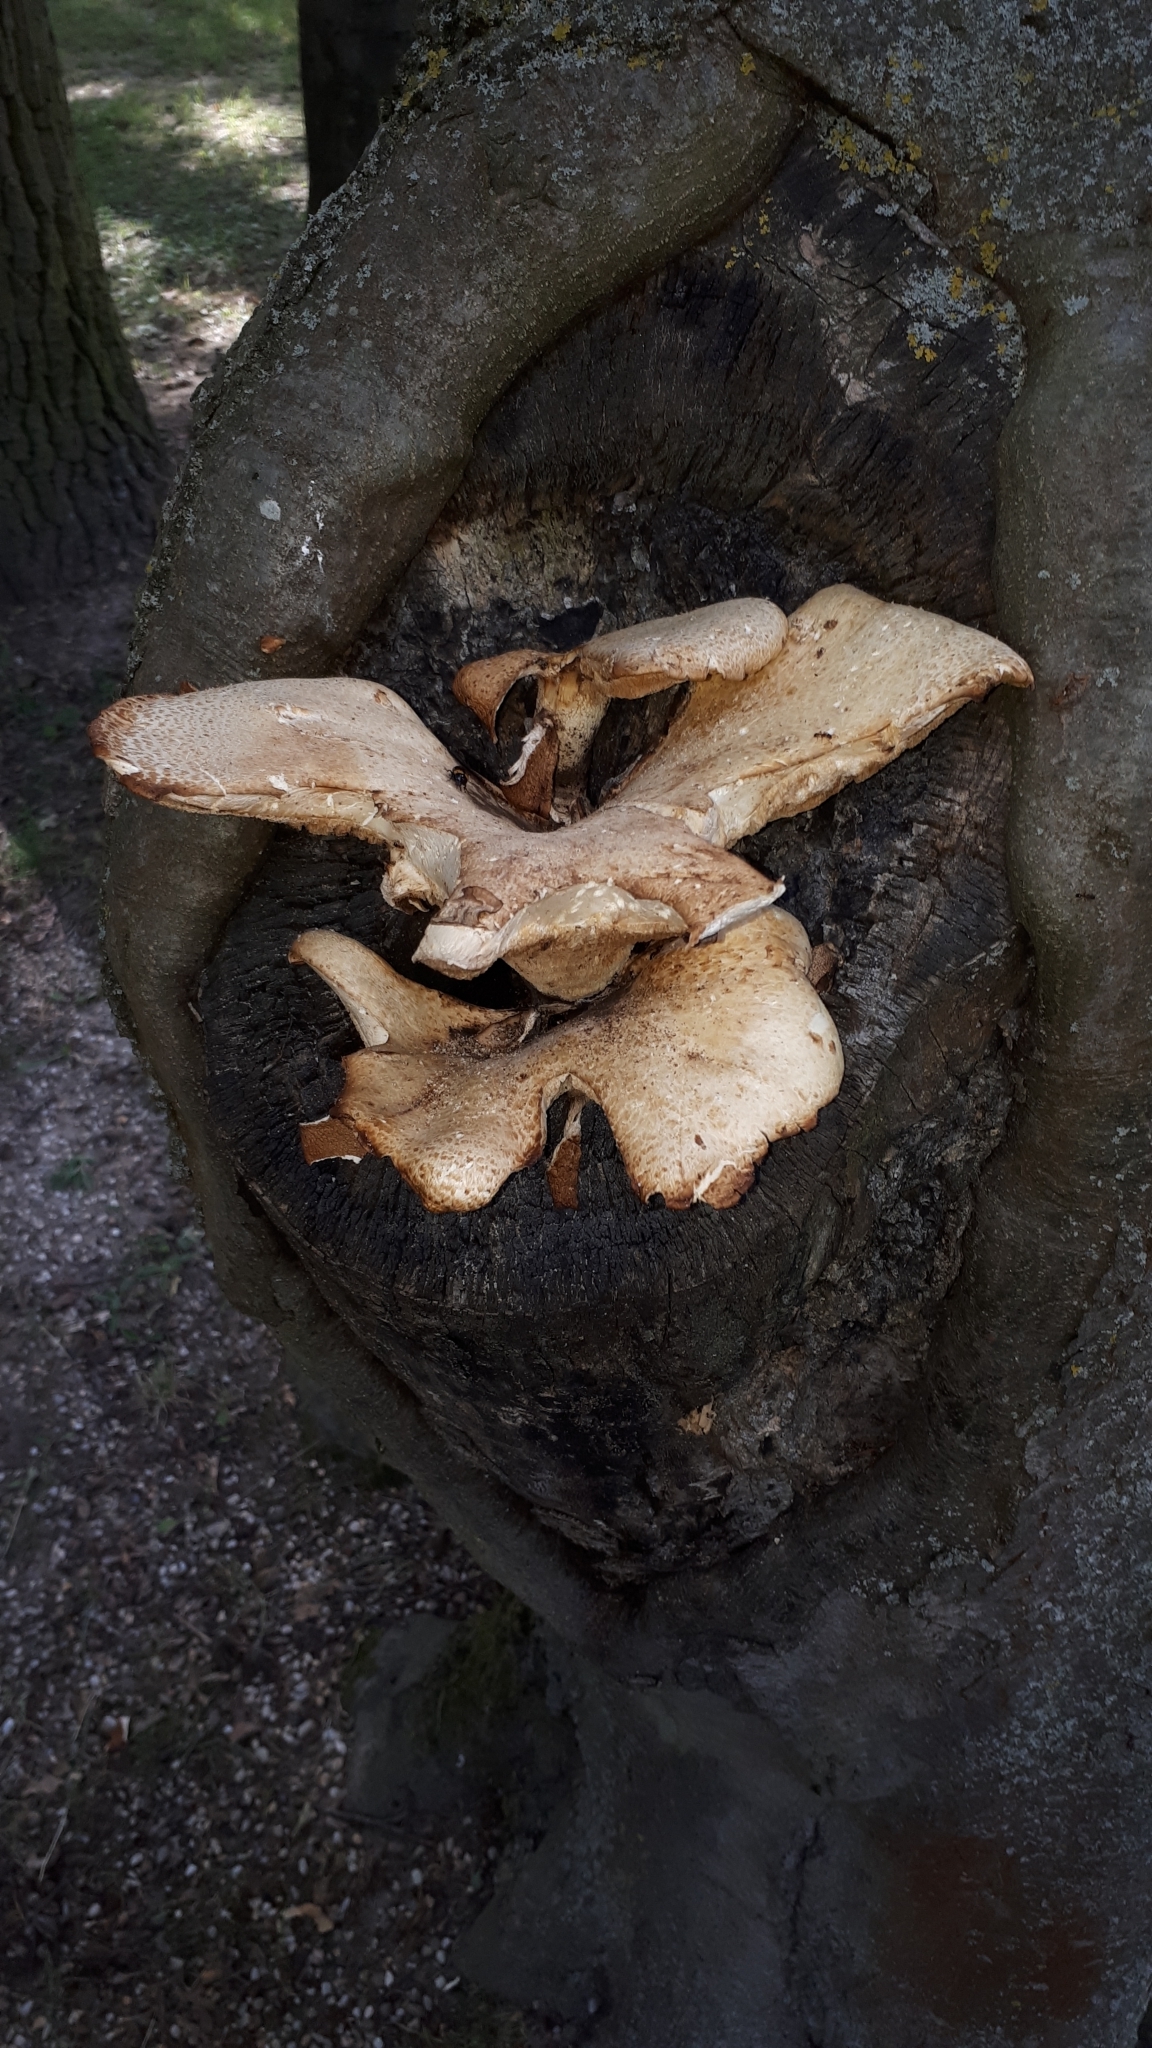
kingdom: Fungi
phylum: Basidiomycota
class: Agaricomycetes
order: Polyporales
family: Polyporaceae
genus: Cerioporus
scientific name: Cerioporus squamosus
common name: Dryad's saddle
